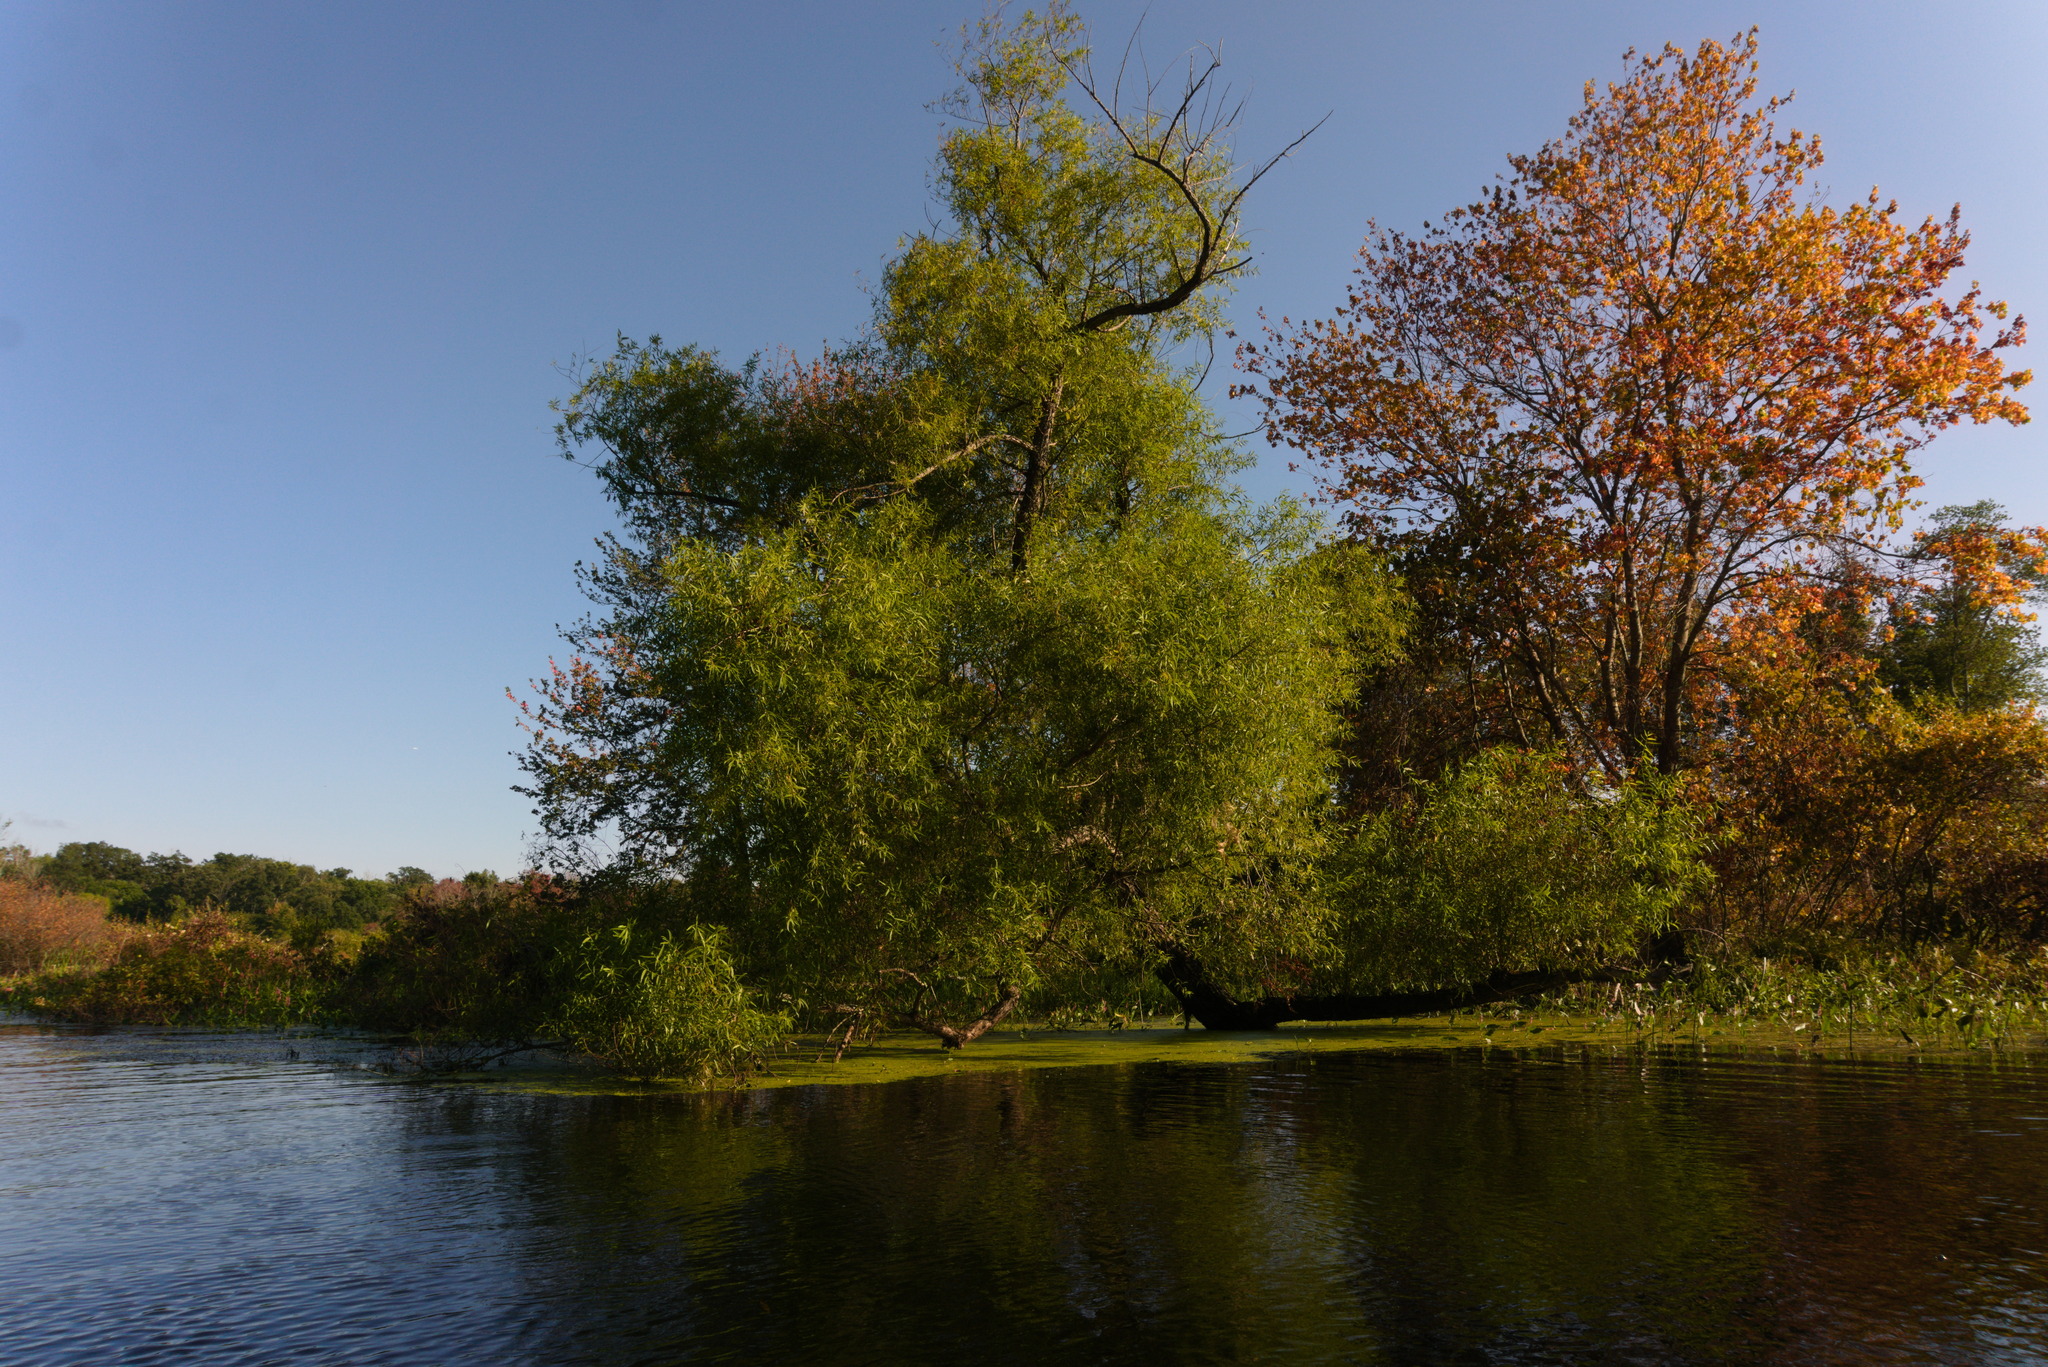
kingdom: Plantae
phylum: Tracheophyta
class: Magnoliopsida
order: Malpighiales
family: Salicaceae
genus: Salix
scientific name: Salix nigra
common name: Black willow
